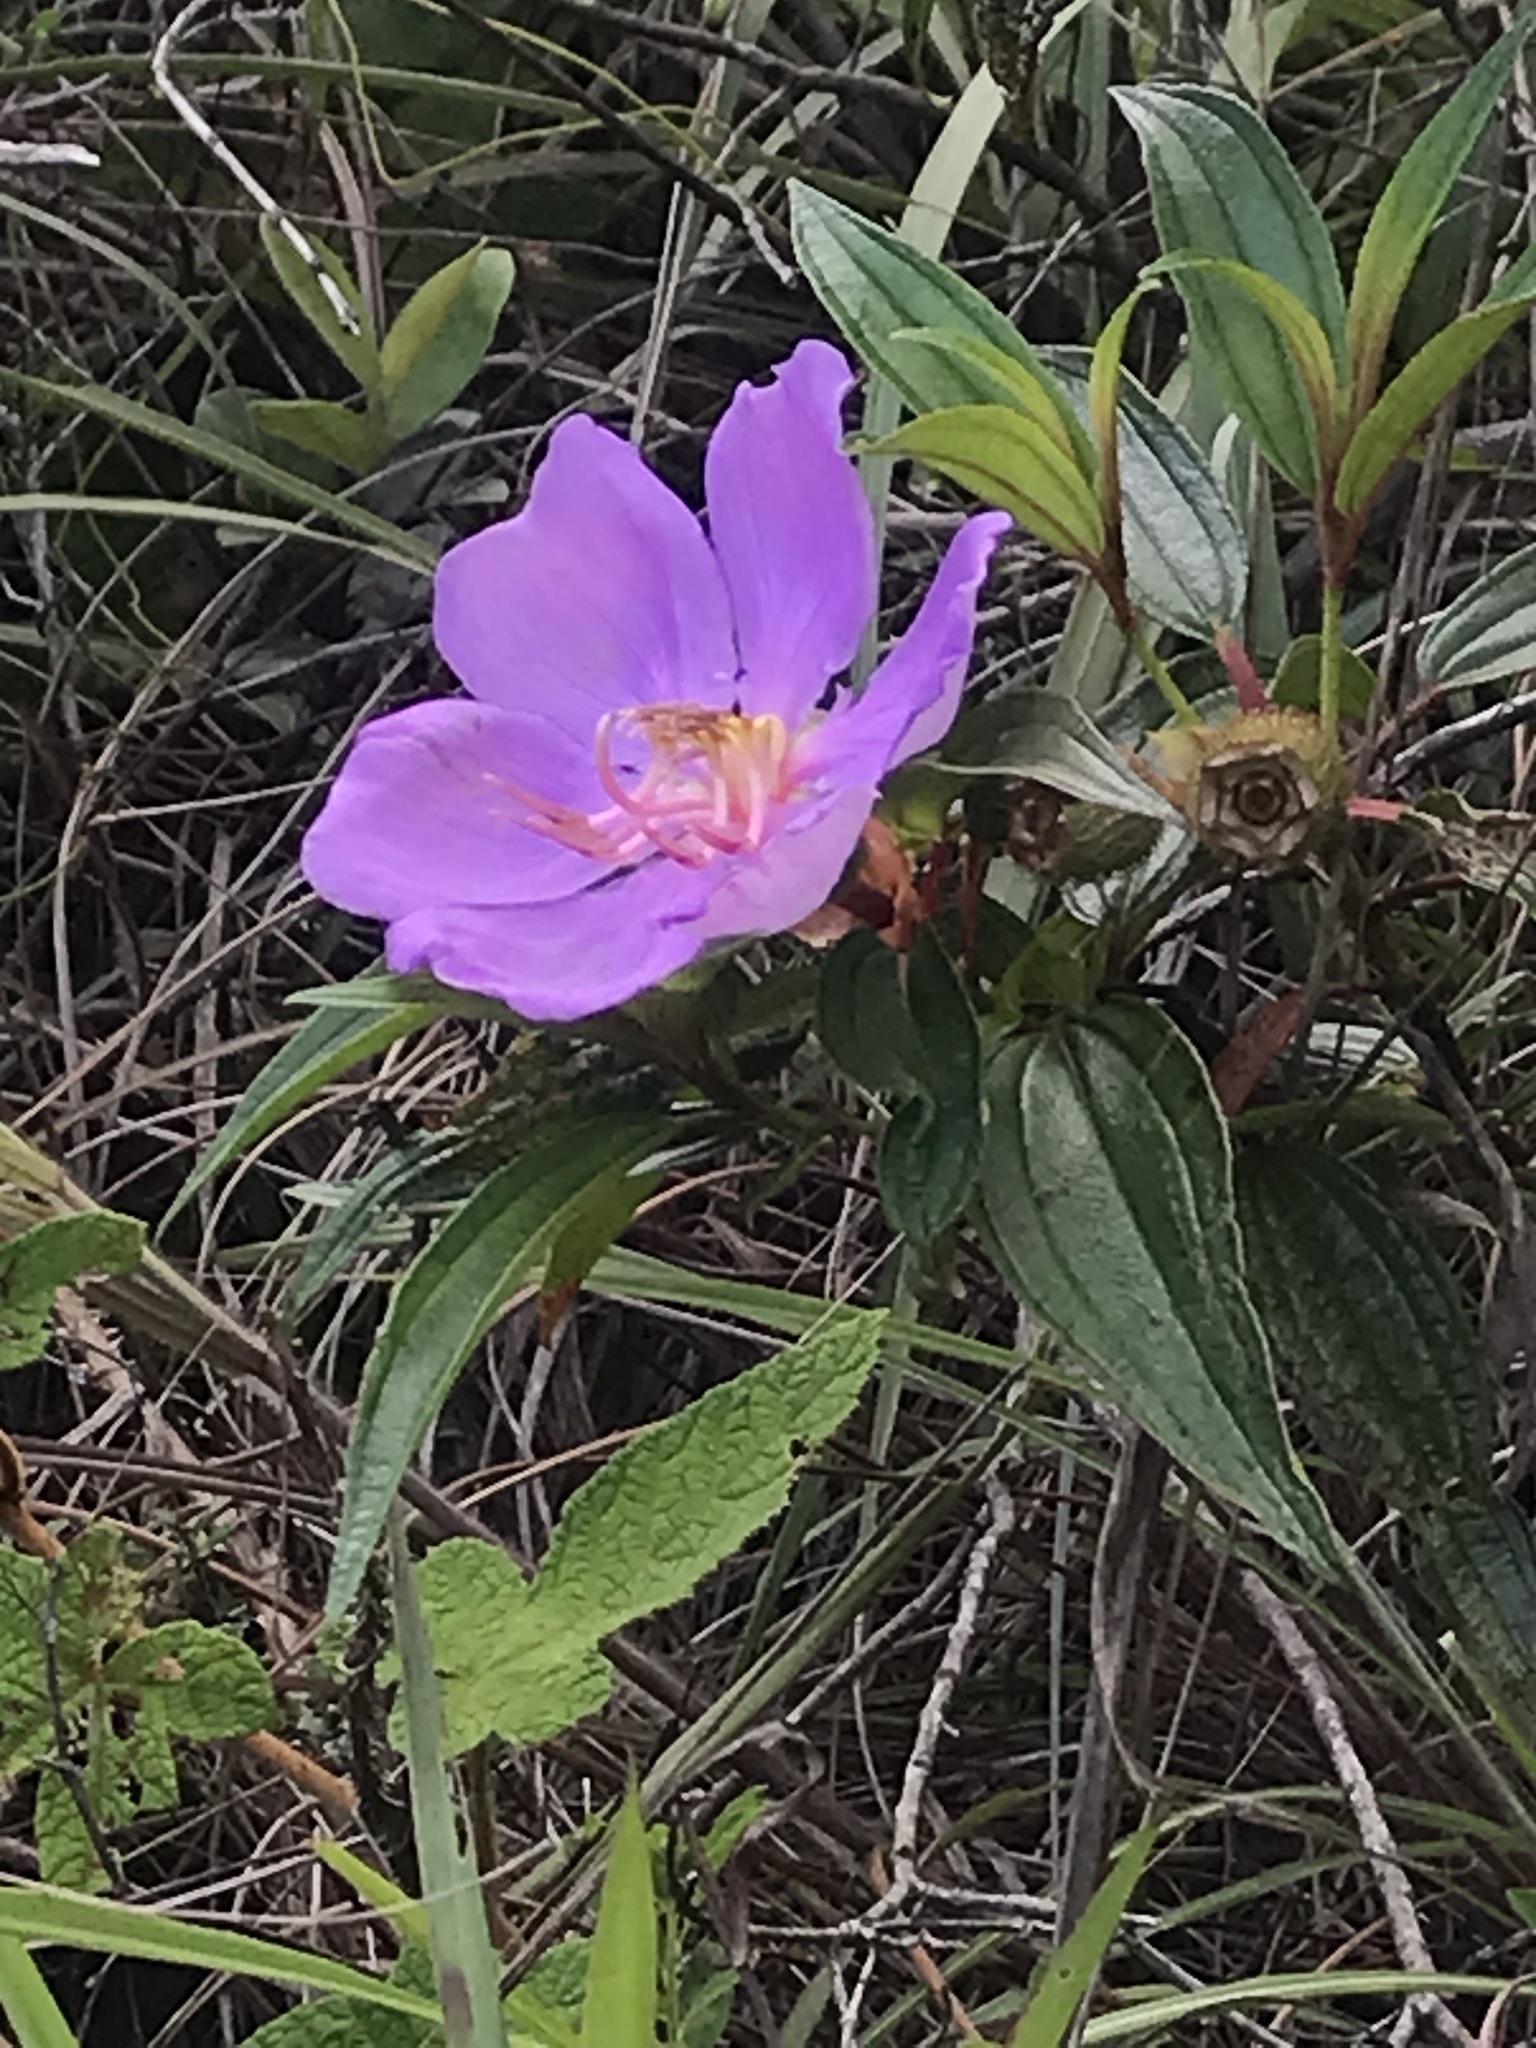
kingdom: Plantae
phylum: Tracheophyta
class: Magnoliopsida
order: Myrtales
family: Melastomataceae
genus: Melastoma
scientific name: Melastoma sanguineum
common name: Red melastome
